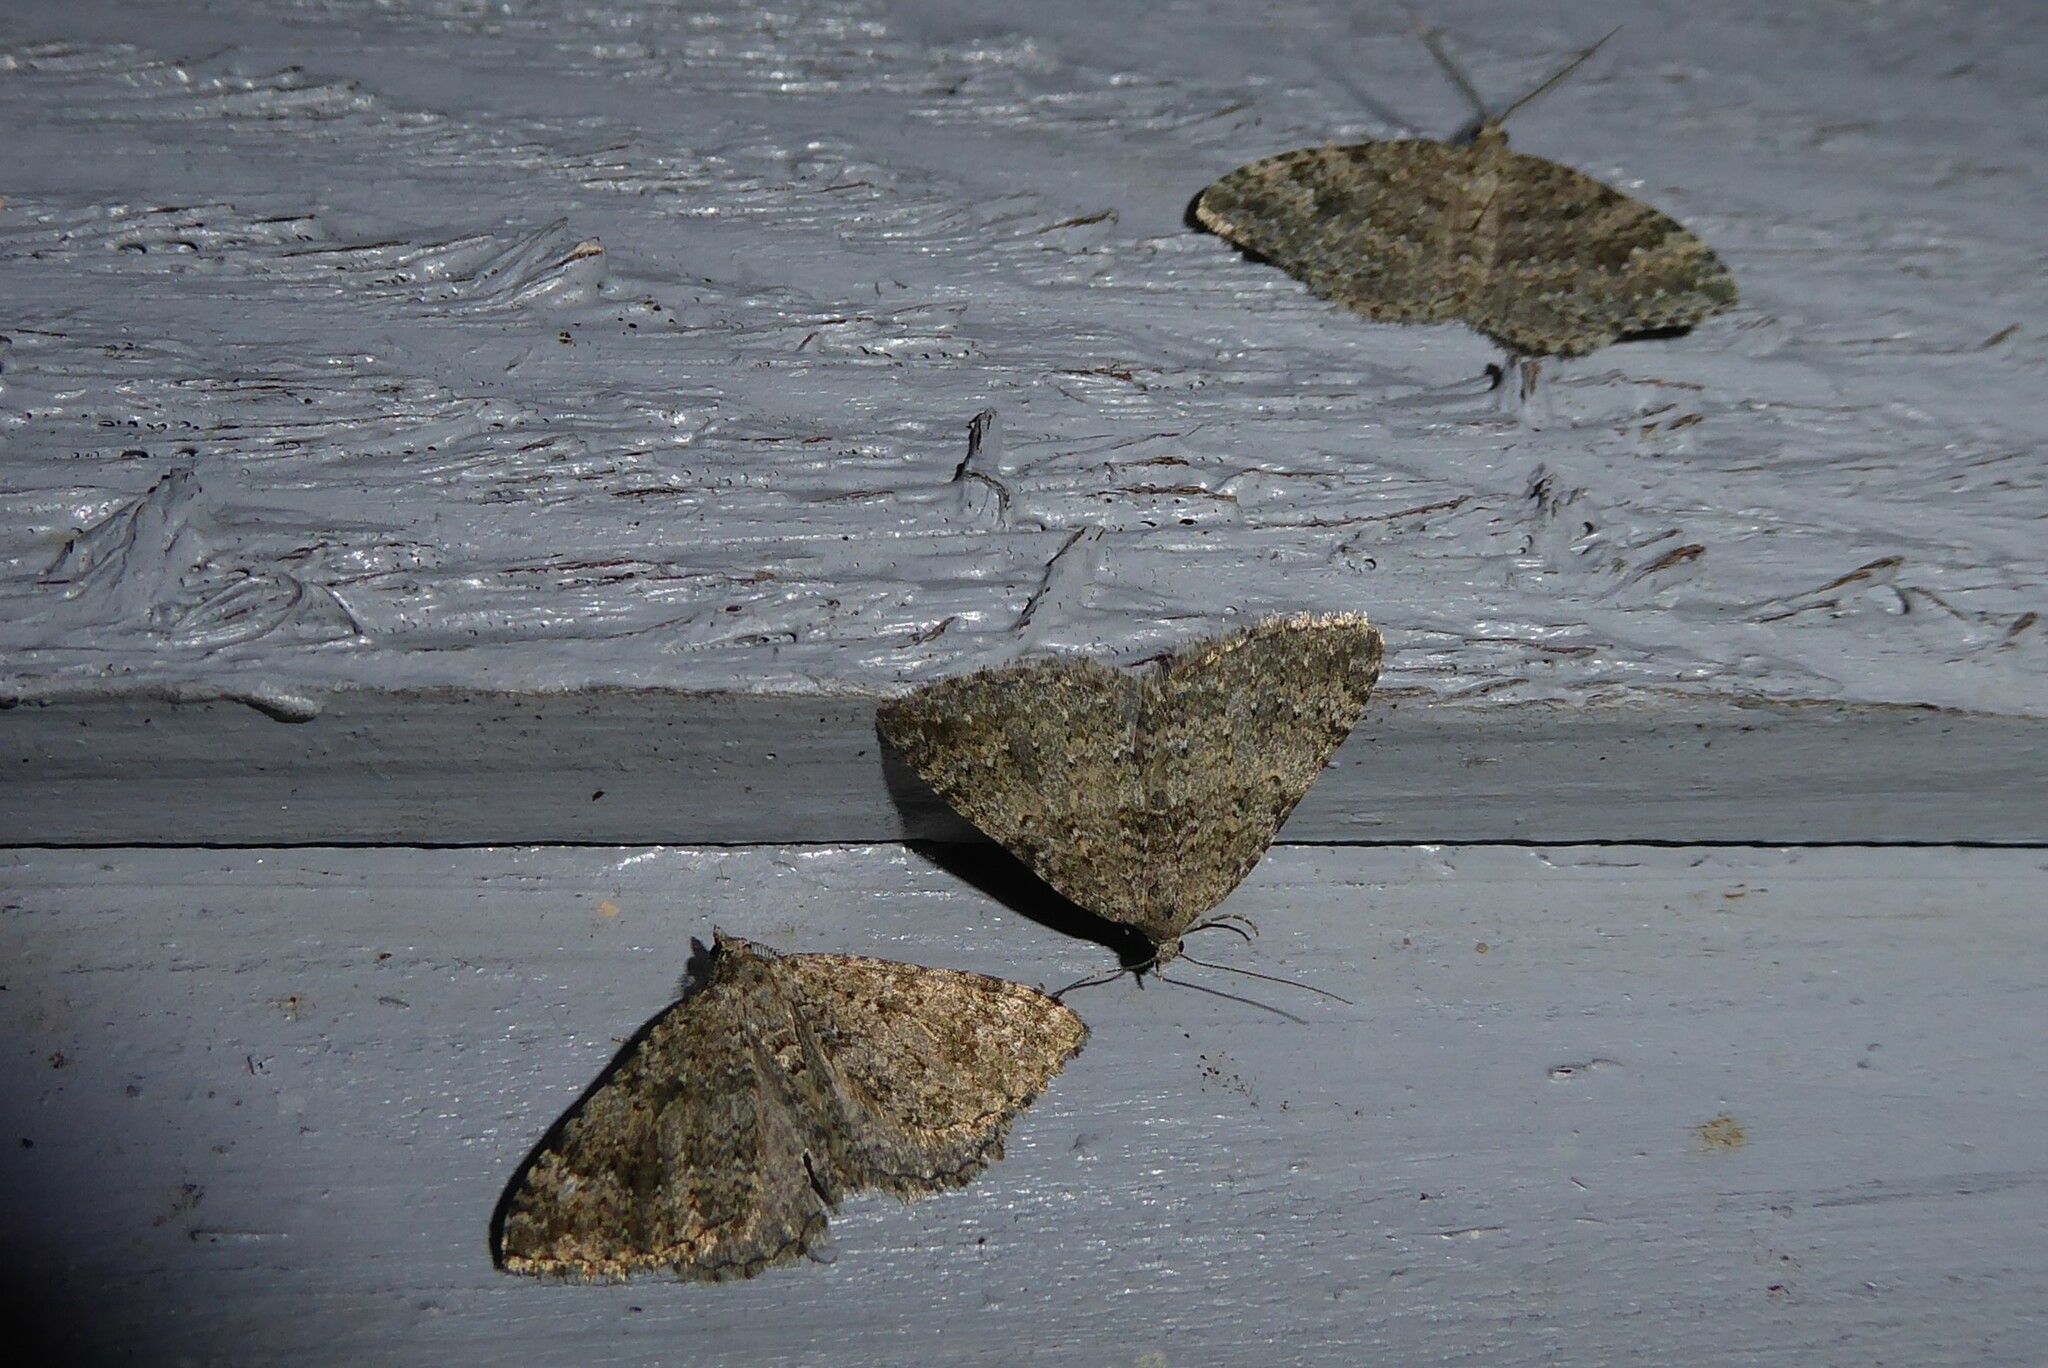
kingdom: Animalia
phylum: Arthropoda
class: Insecta
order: Lepidoptera
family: Geometridae
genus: Helastia
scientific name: Helastia corcularia
